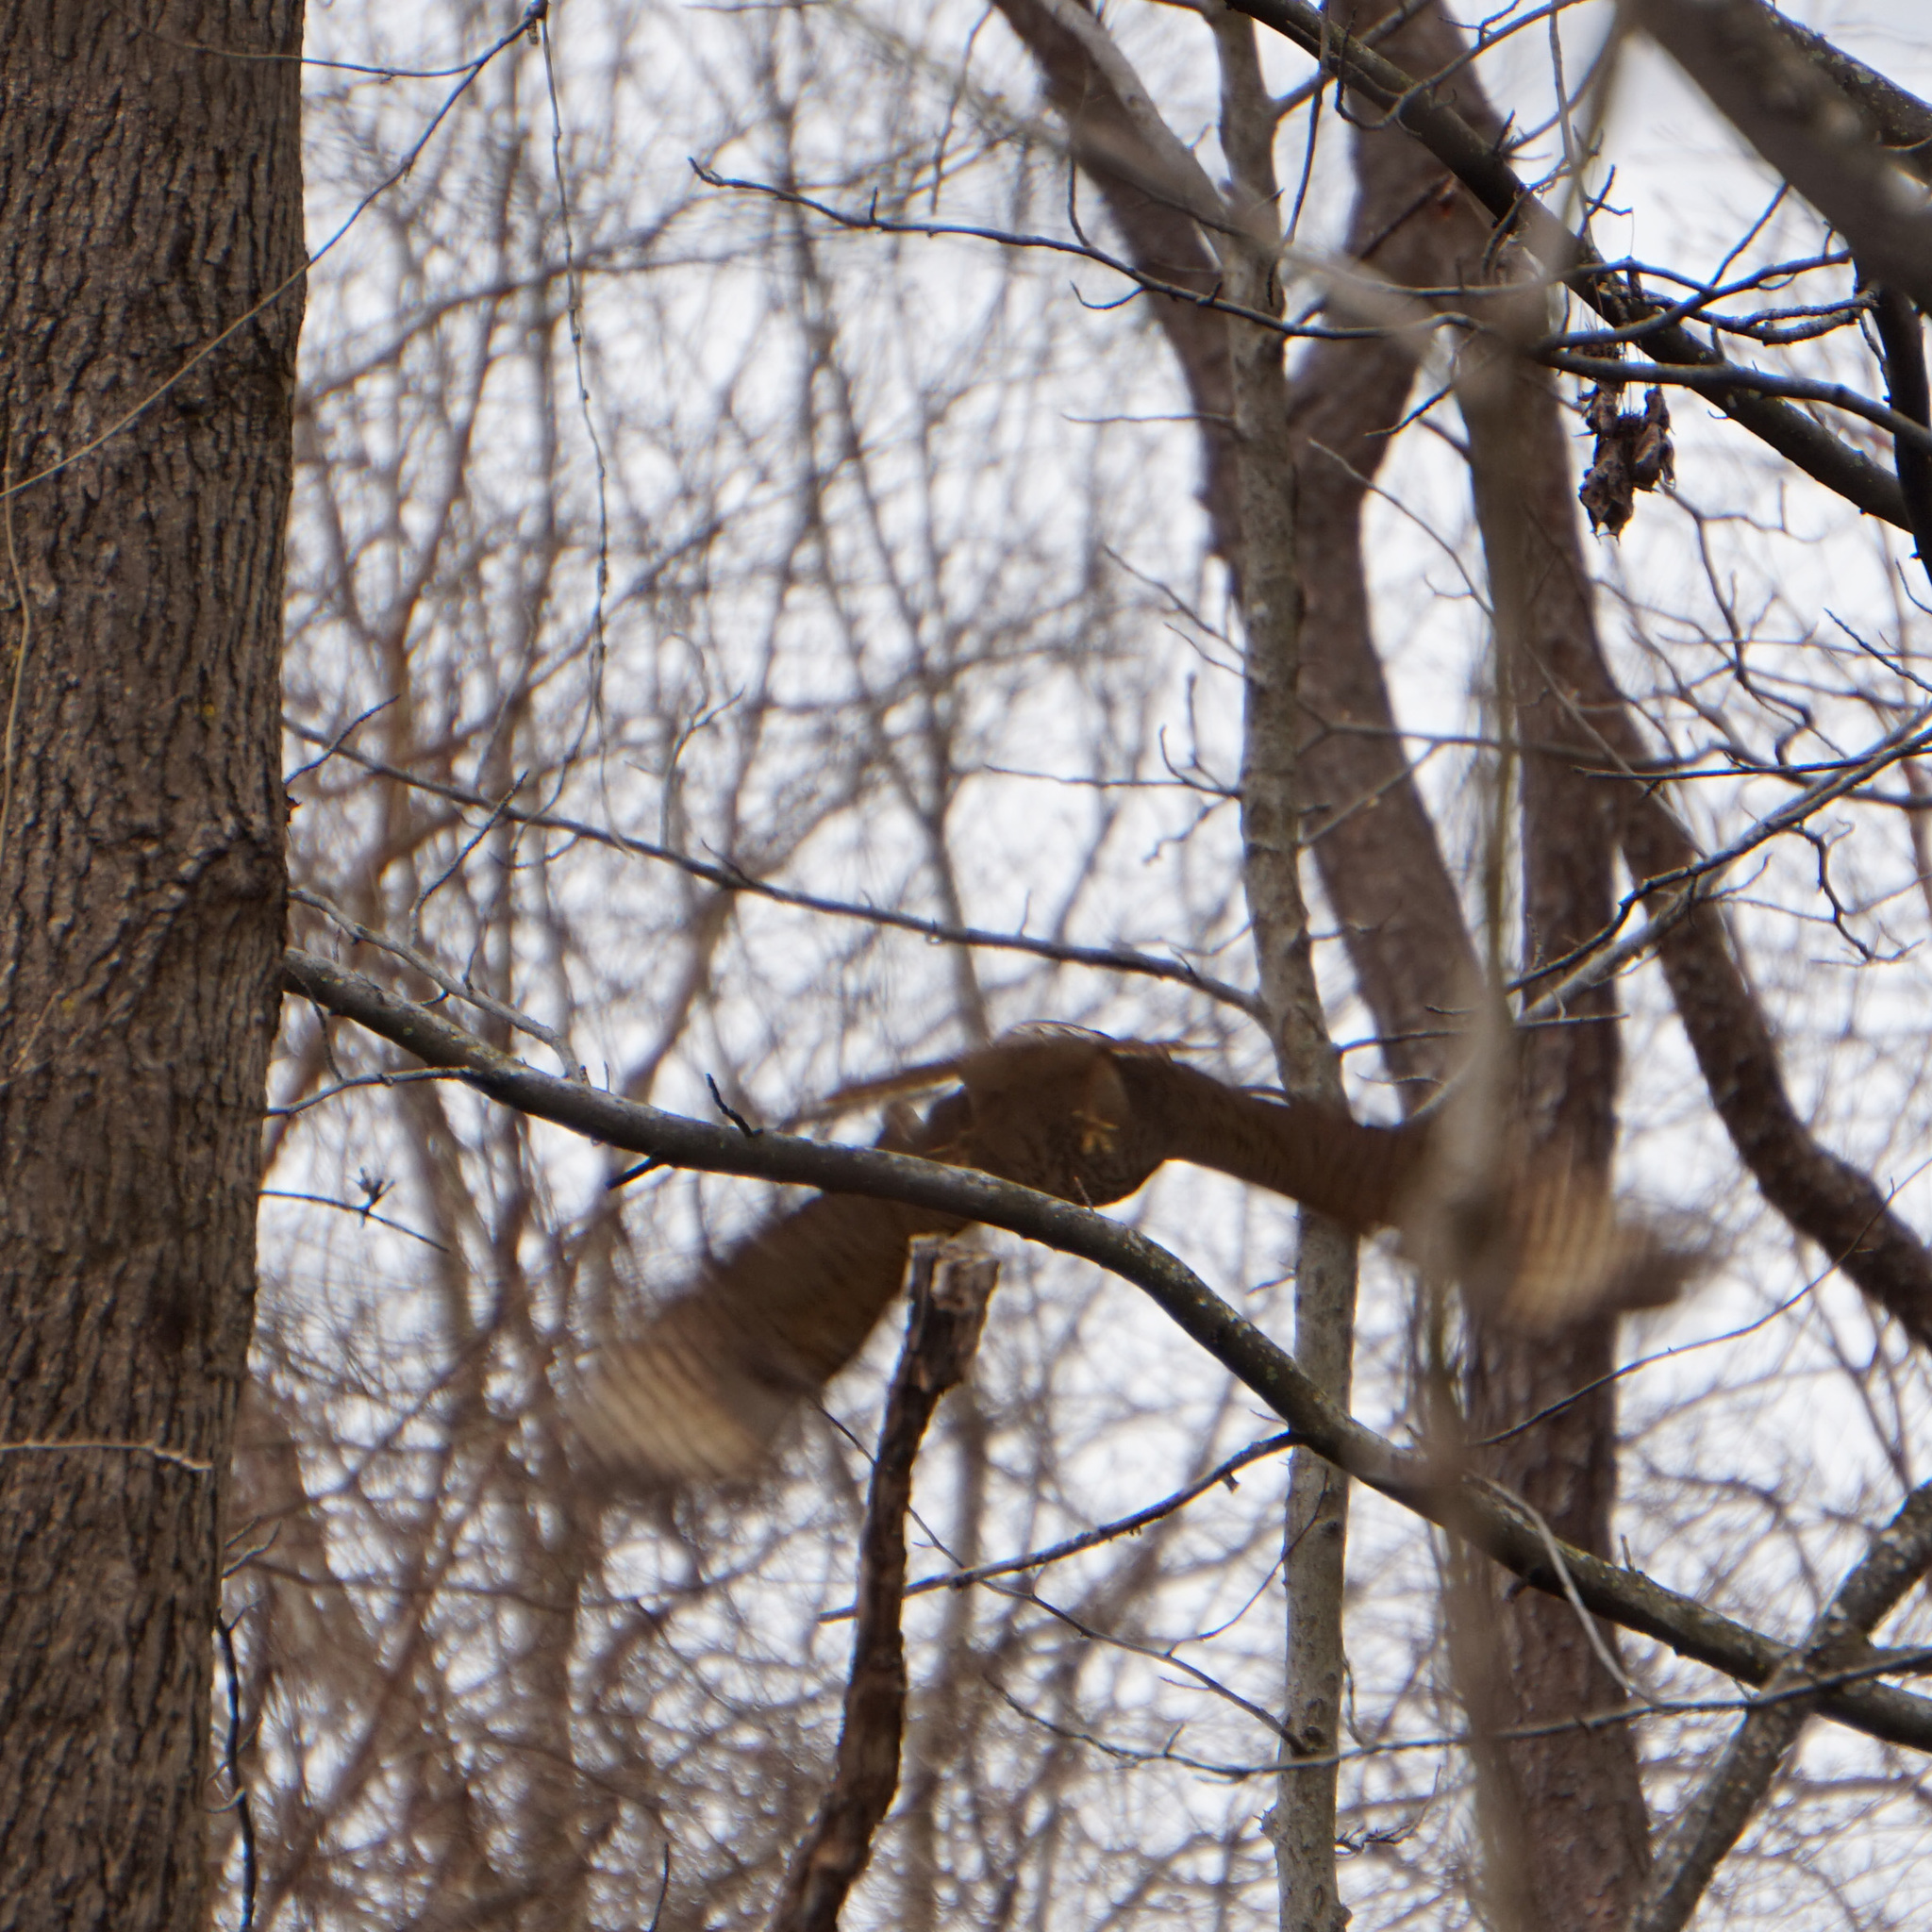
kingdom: Animalia
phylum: Chordata
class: Aves
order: Accipitriformes
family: Accipitridae
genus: Buteo
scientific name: Buteo lineatus
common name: Red-shouldered hawk
